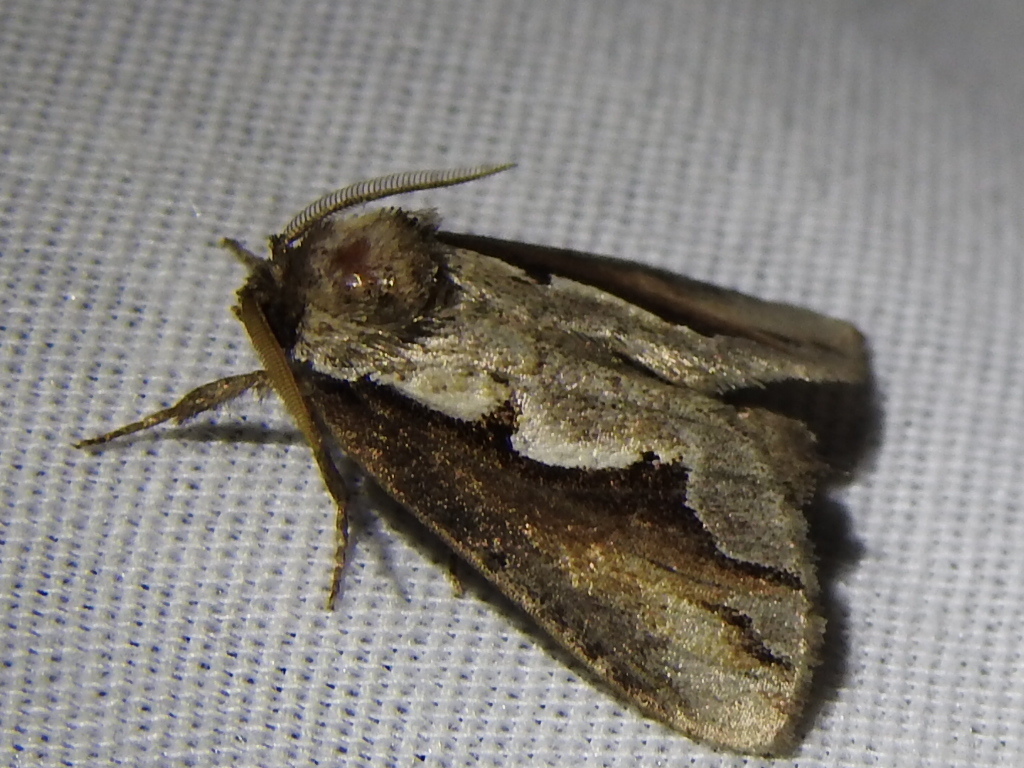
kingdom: Animalia
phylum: Arthropoda
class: Insecta
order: Lepidoptera
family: Notodontidae
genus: Nerice
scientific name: Nerice bidentata
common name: Double-toothed prominent
